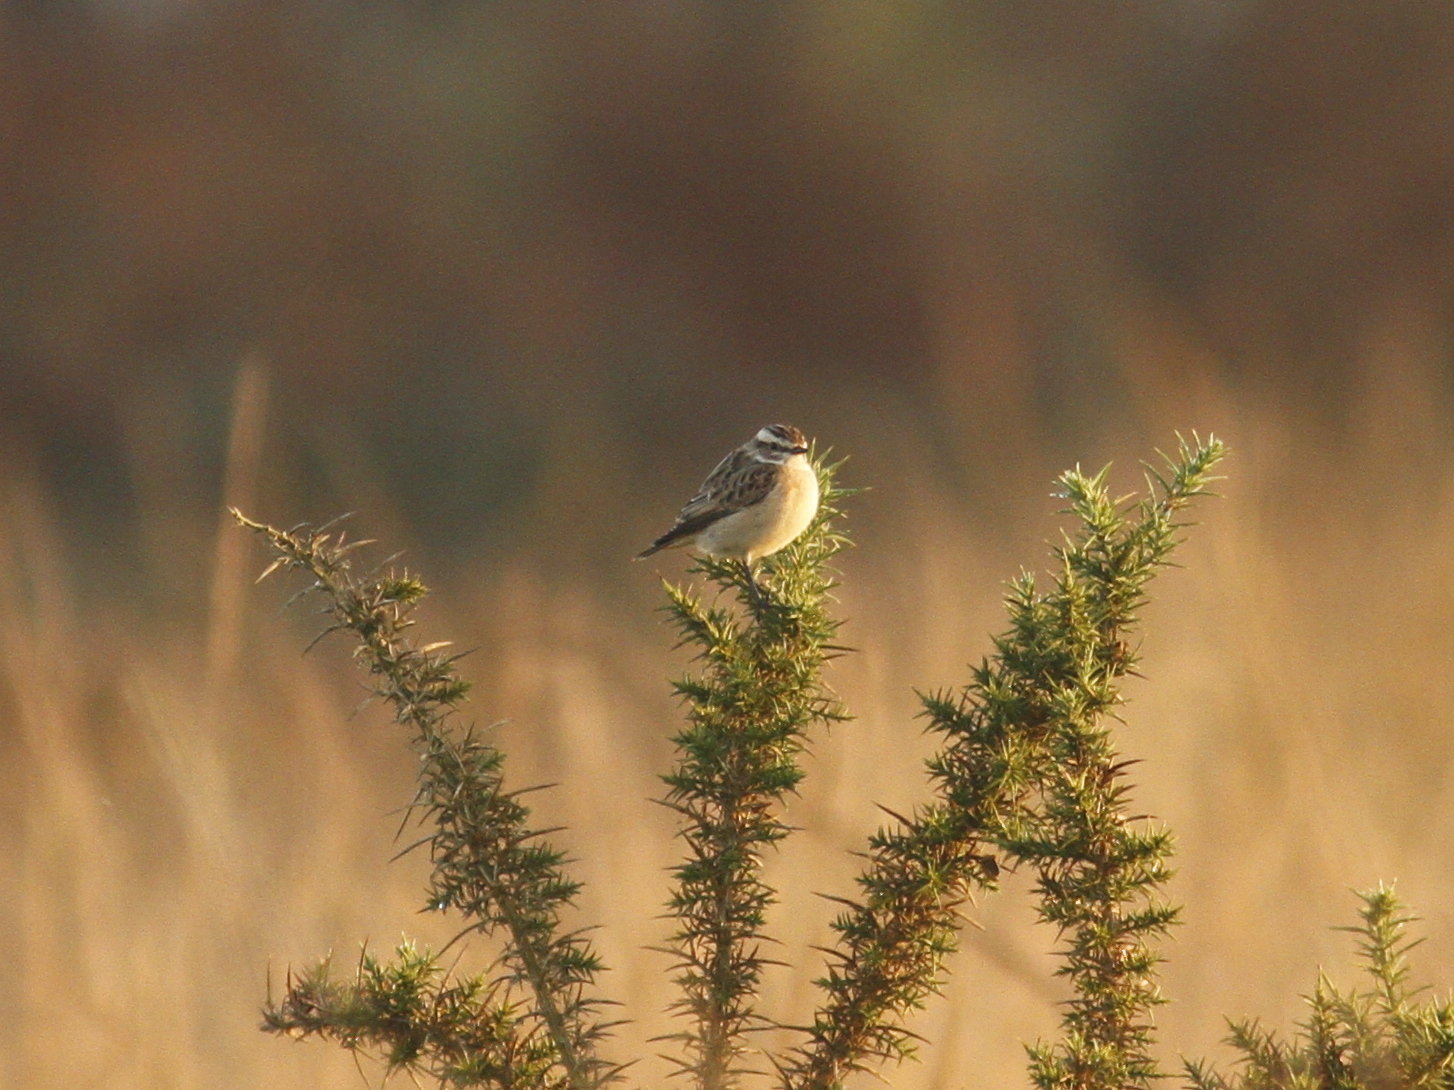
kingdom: Animalia
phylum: Chordata
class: Aves
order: Passeriformes
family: Muscicapidae
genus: Saxicola
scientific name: Saxicola rubetra
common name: Whinchat
